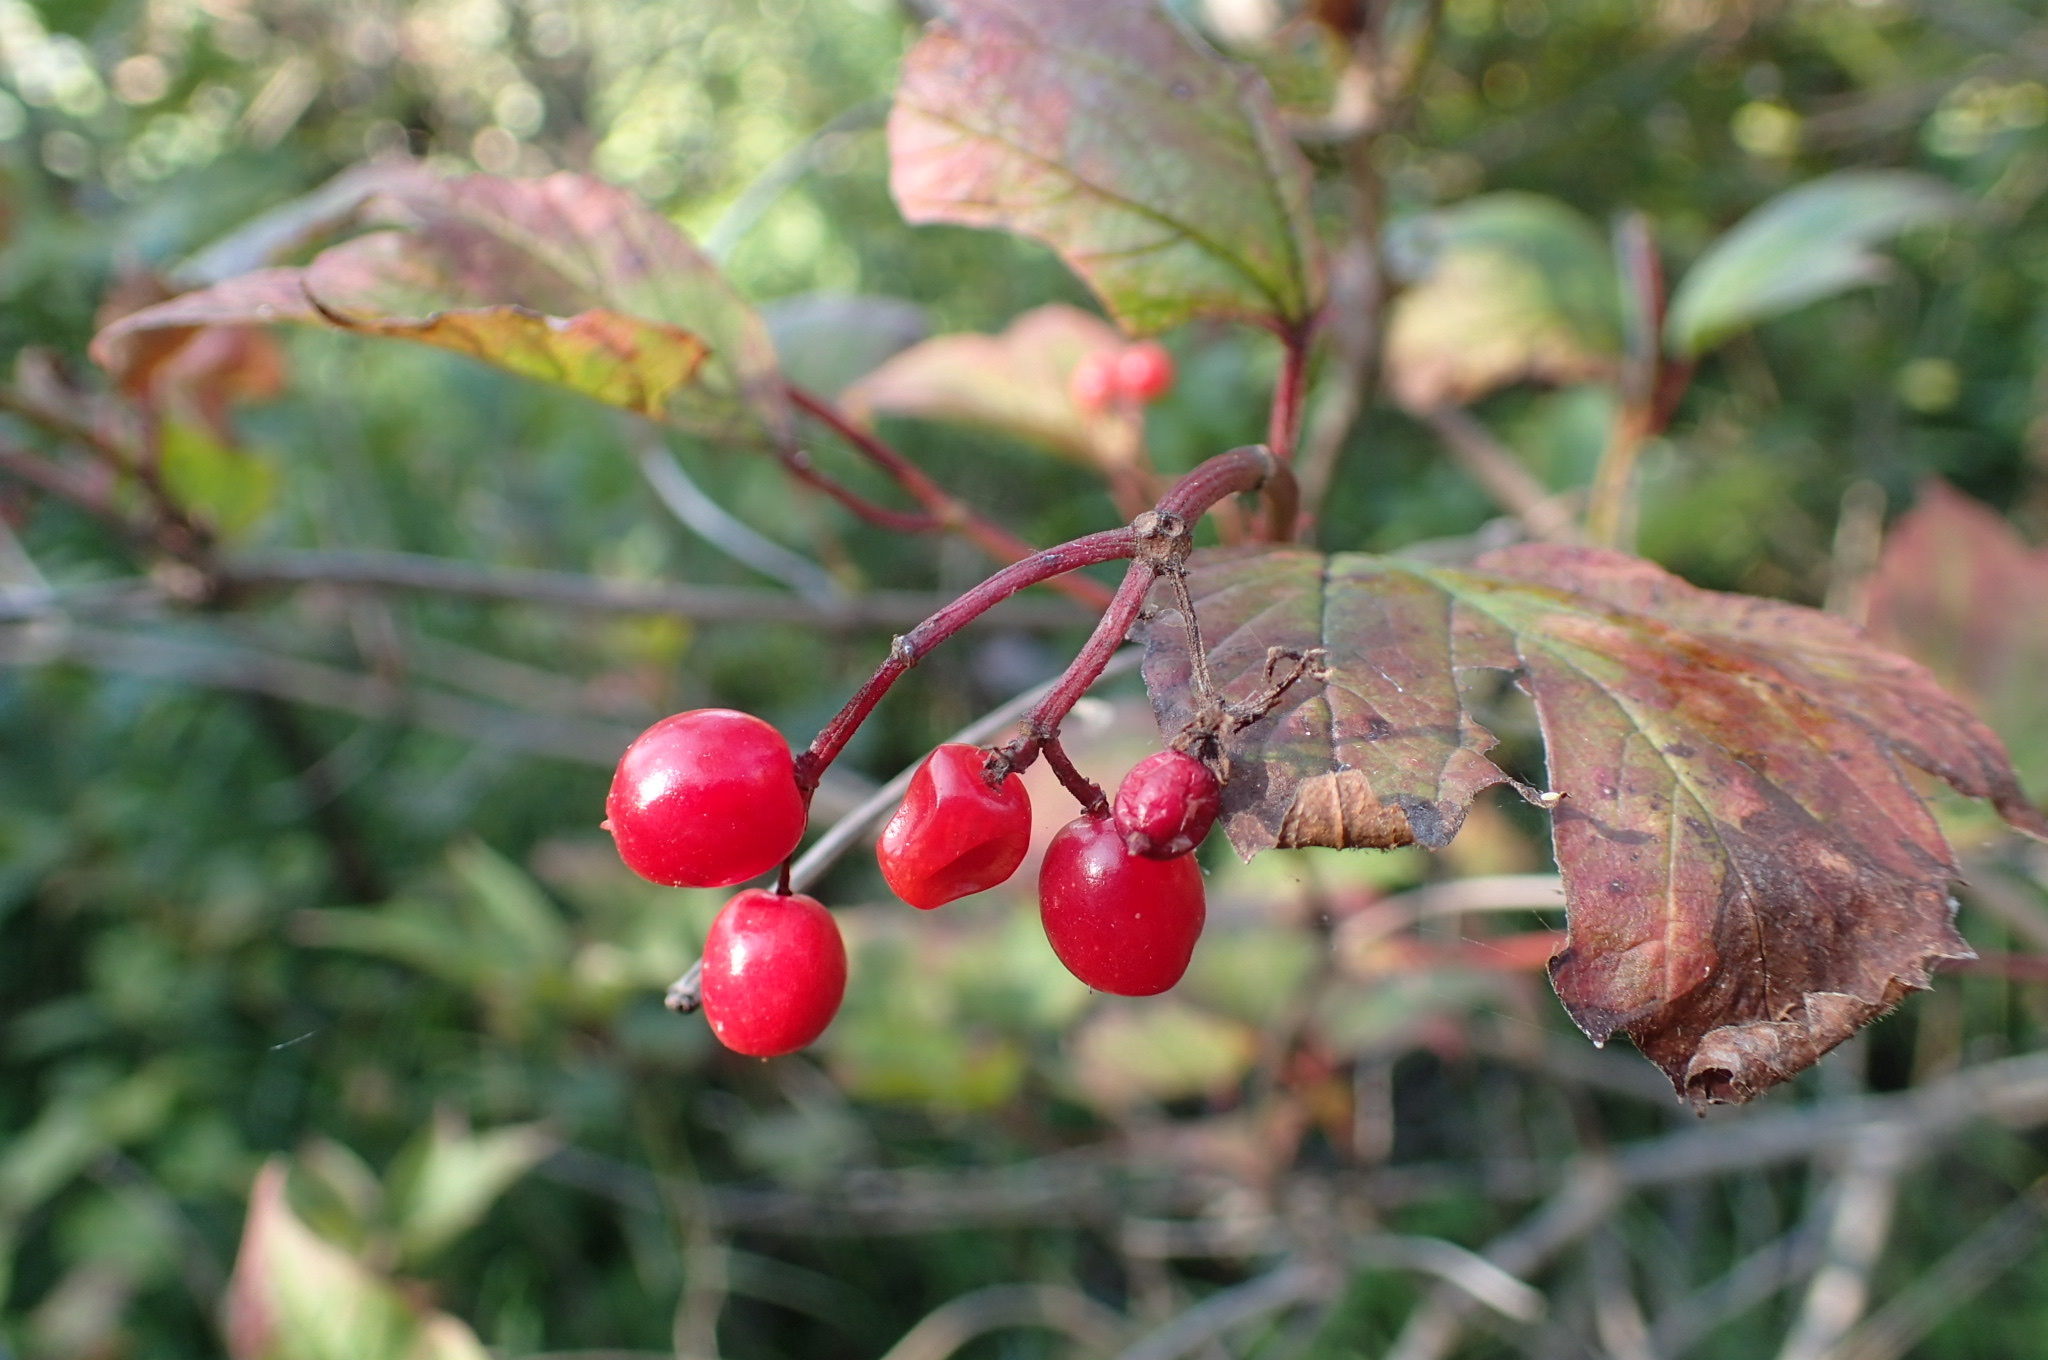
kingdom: Plantae
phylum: Tracheophyta
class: Magnoliopsida
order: Dipsacales
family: Viburnaceae
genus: Viburnum
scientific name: Viburnum opulus
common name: Guelder-rose
